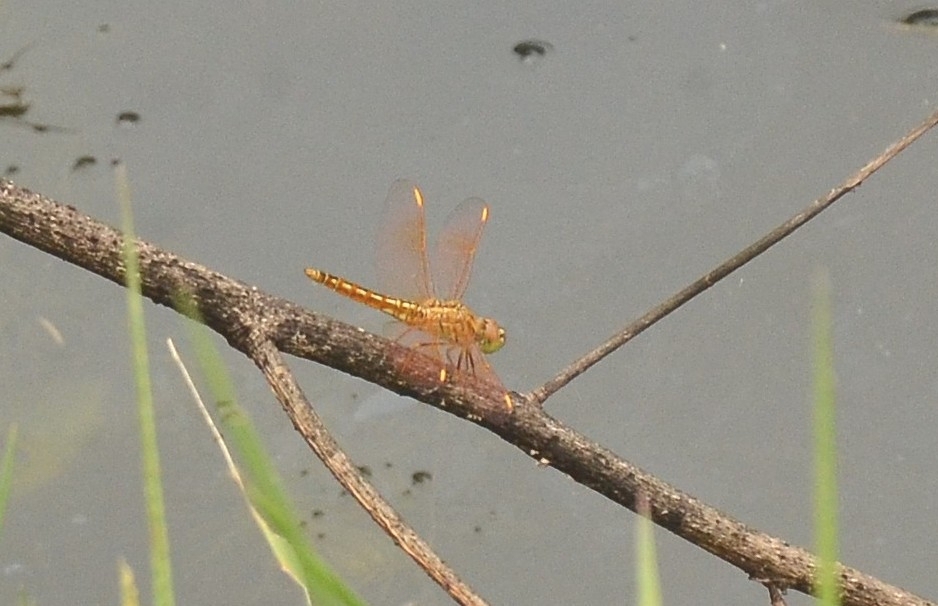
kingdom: Animalia
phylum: Arthropoda
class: Insecta
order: Odonata
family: Libellulidae
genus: Brachythemis
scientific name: Brachythemis contaminata
